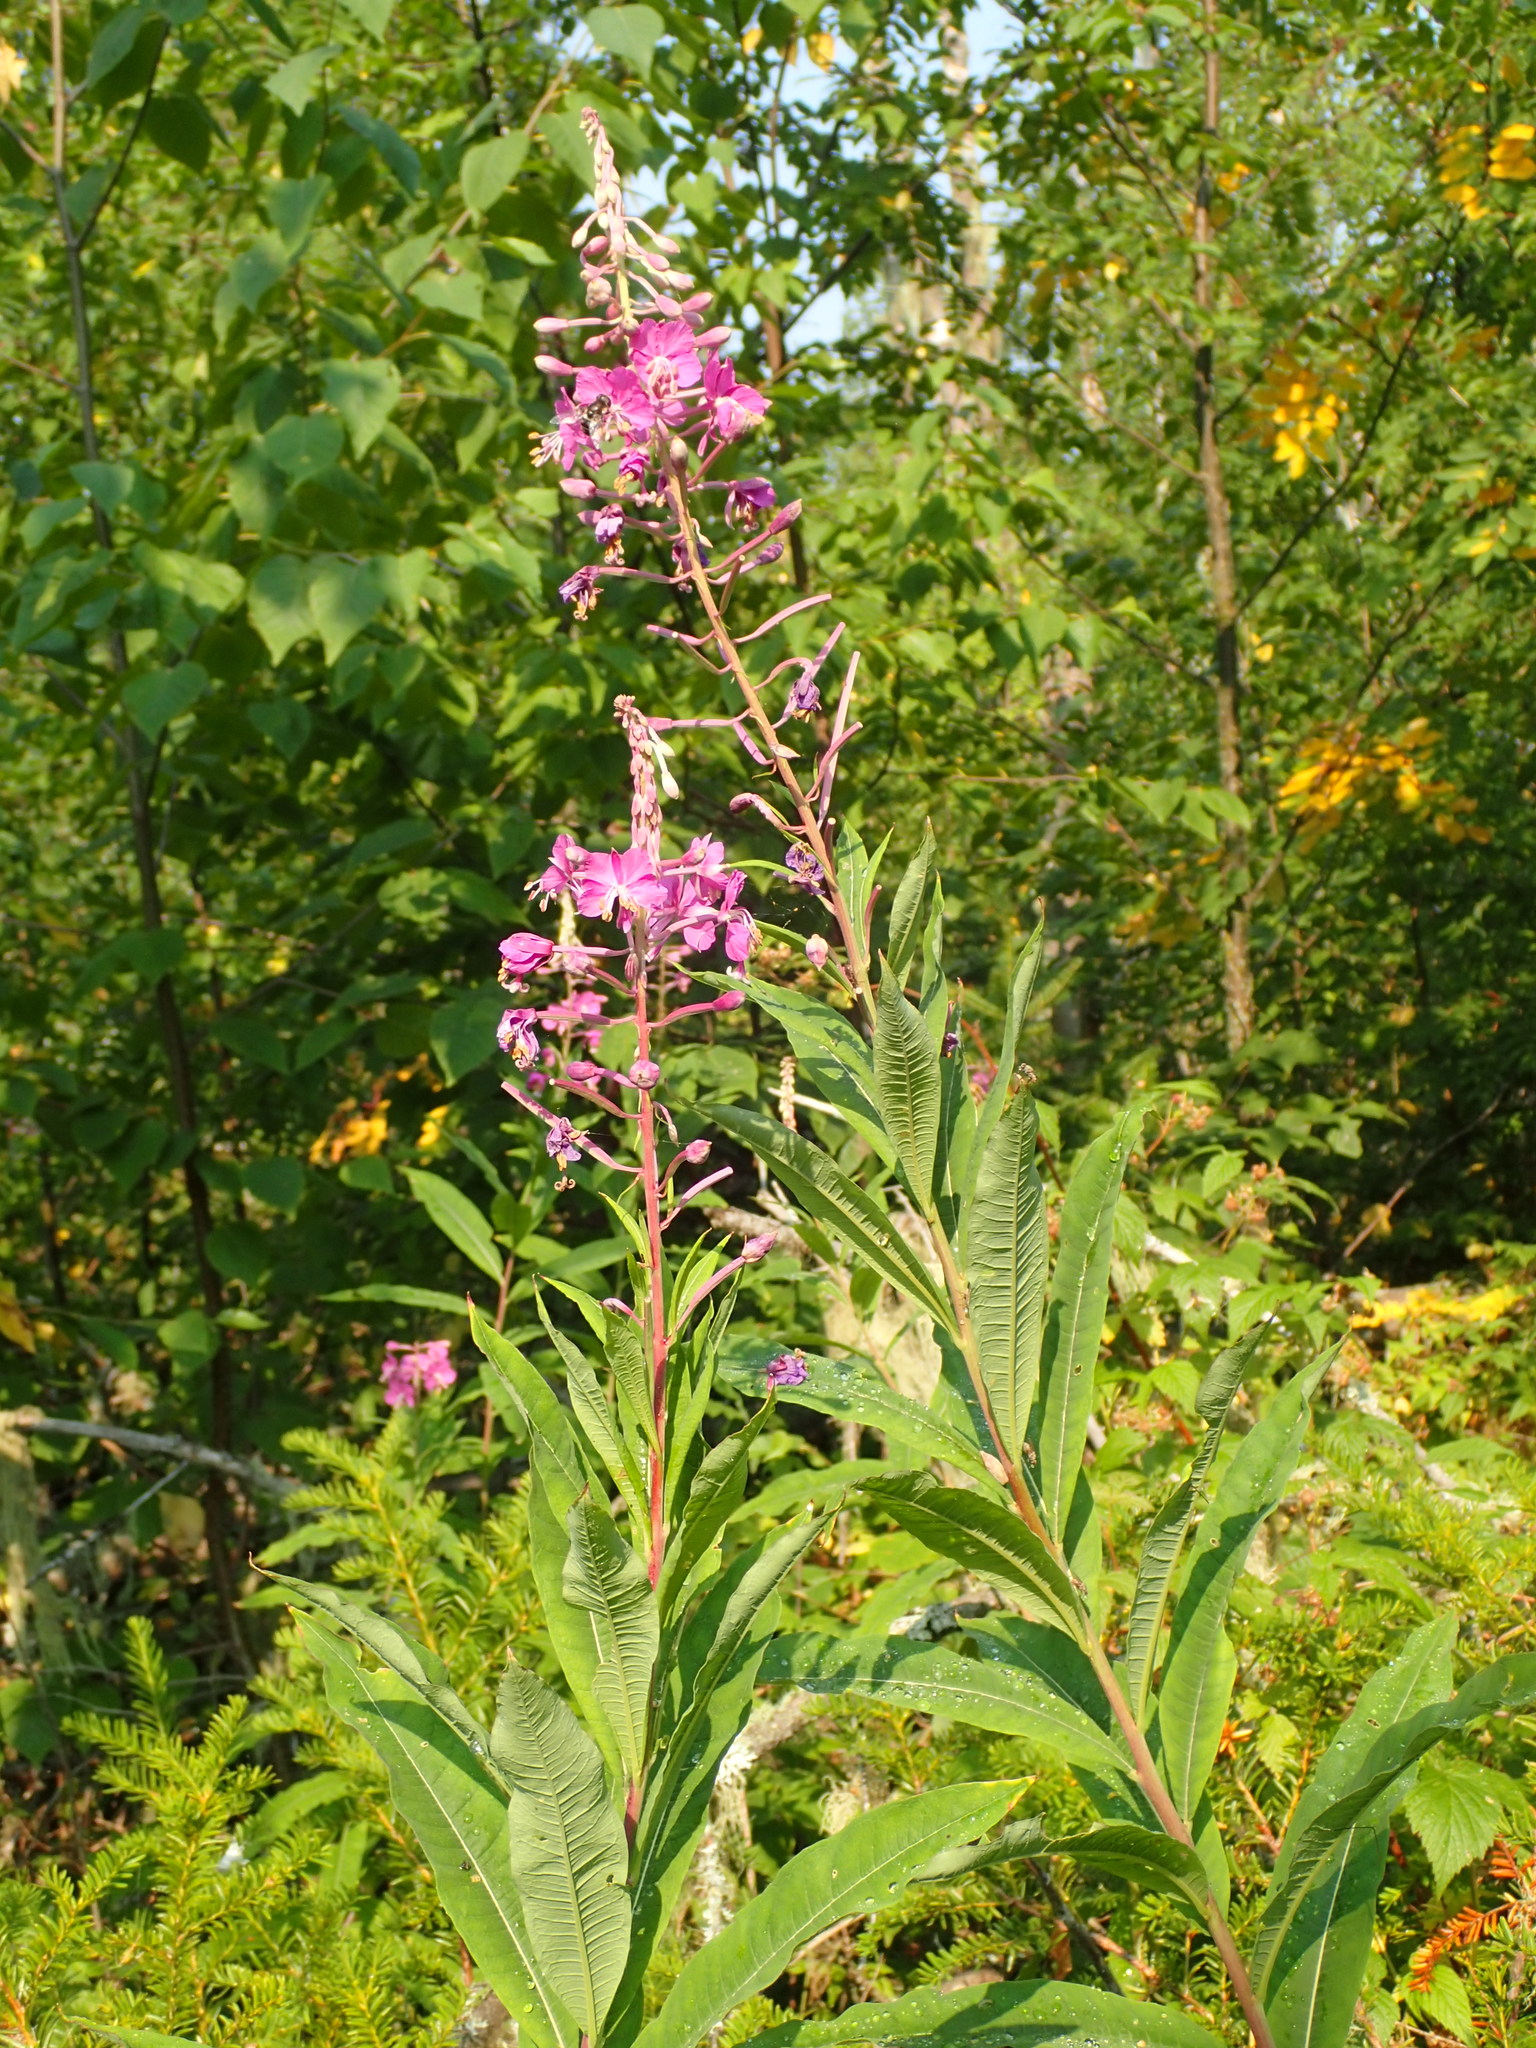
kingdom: Plantae
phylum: Tracheophyta
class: Magnoliopsida
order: Myrtales
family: Onagraceae
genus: Chamaenerion
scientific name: Chamaenerion angustifolium
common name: Fireweed
